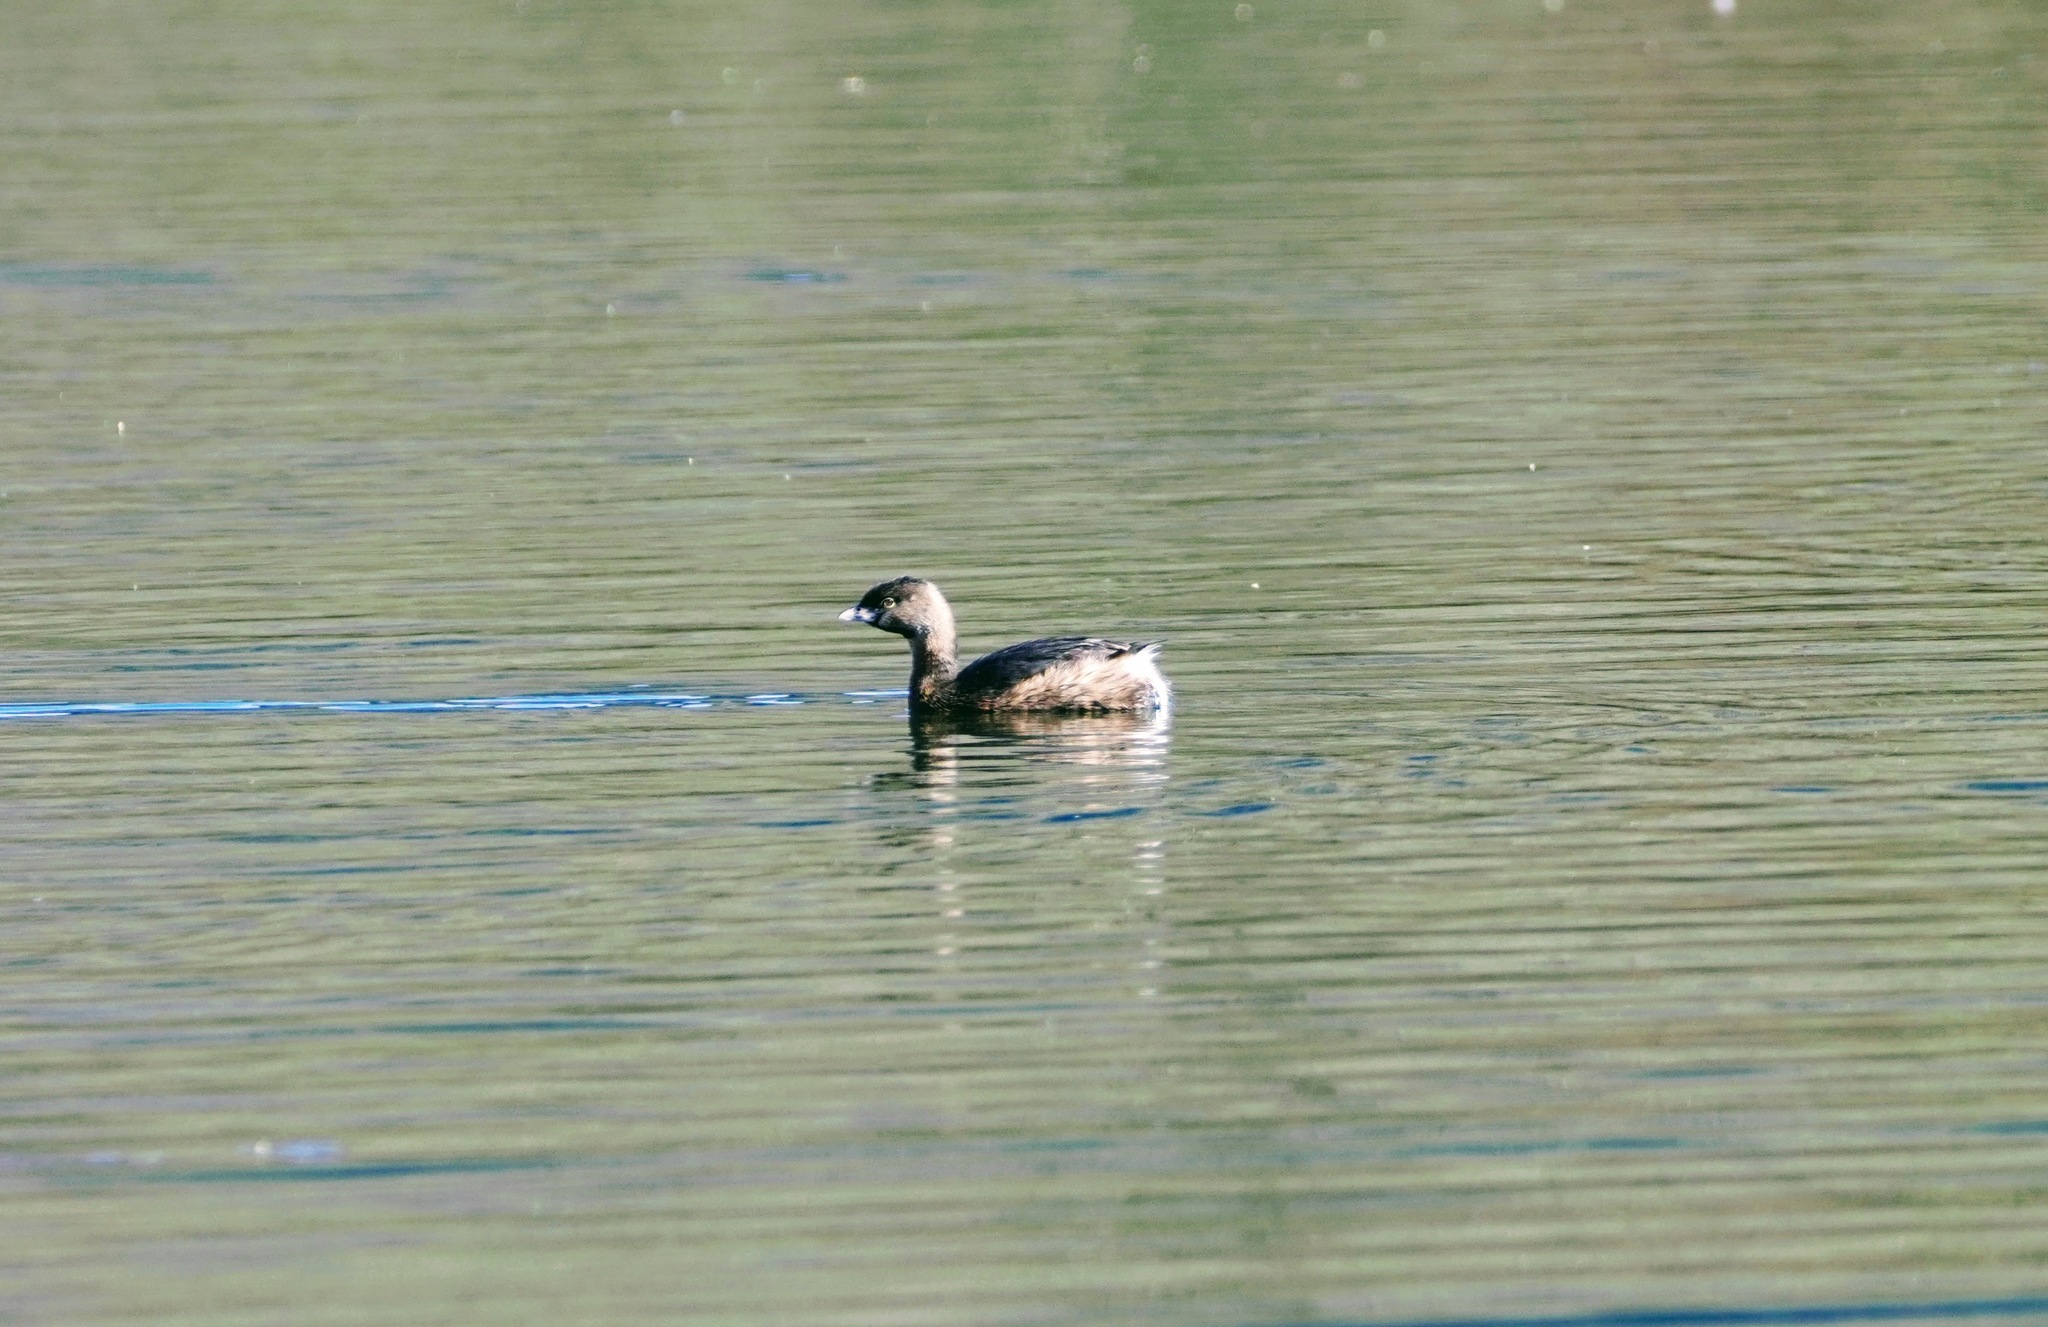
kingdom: Animalia
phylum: Chordata
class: Aves
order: Podicipediformes
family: Podicipedidae
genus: Podilymbus
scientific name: Podilymbus podiceps
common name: Pied-billed grebe
